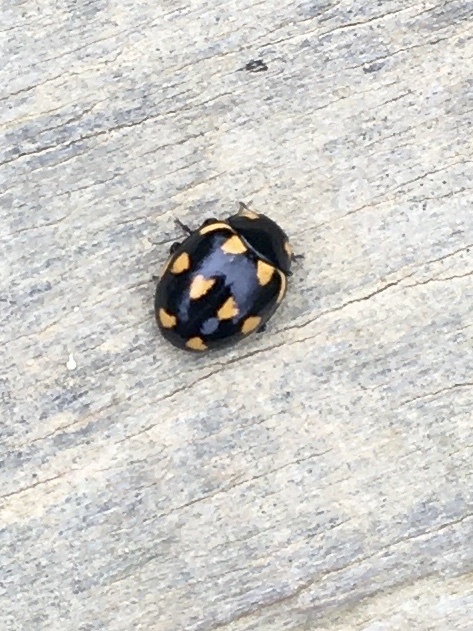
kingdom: Animalia
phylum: Arthropoda
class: Insecta
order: Coleoptera
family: Coccinellidae
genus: Coccinella
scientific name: Coccinella leonina
